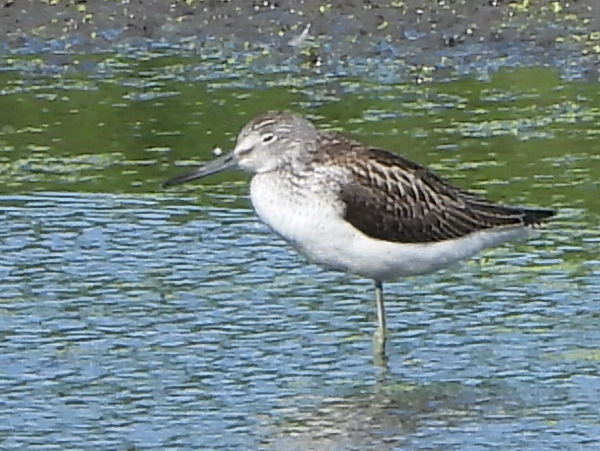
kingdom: Animalia
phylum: Chordata
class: Aves
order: Charadriiformes
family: Scolopacidae
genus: Tringa
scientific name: Tringa nebularia
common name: Common greenshank
